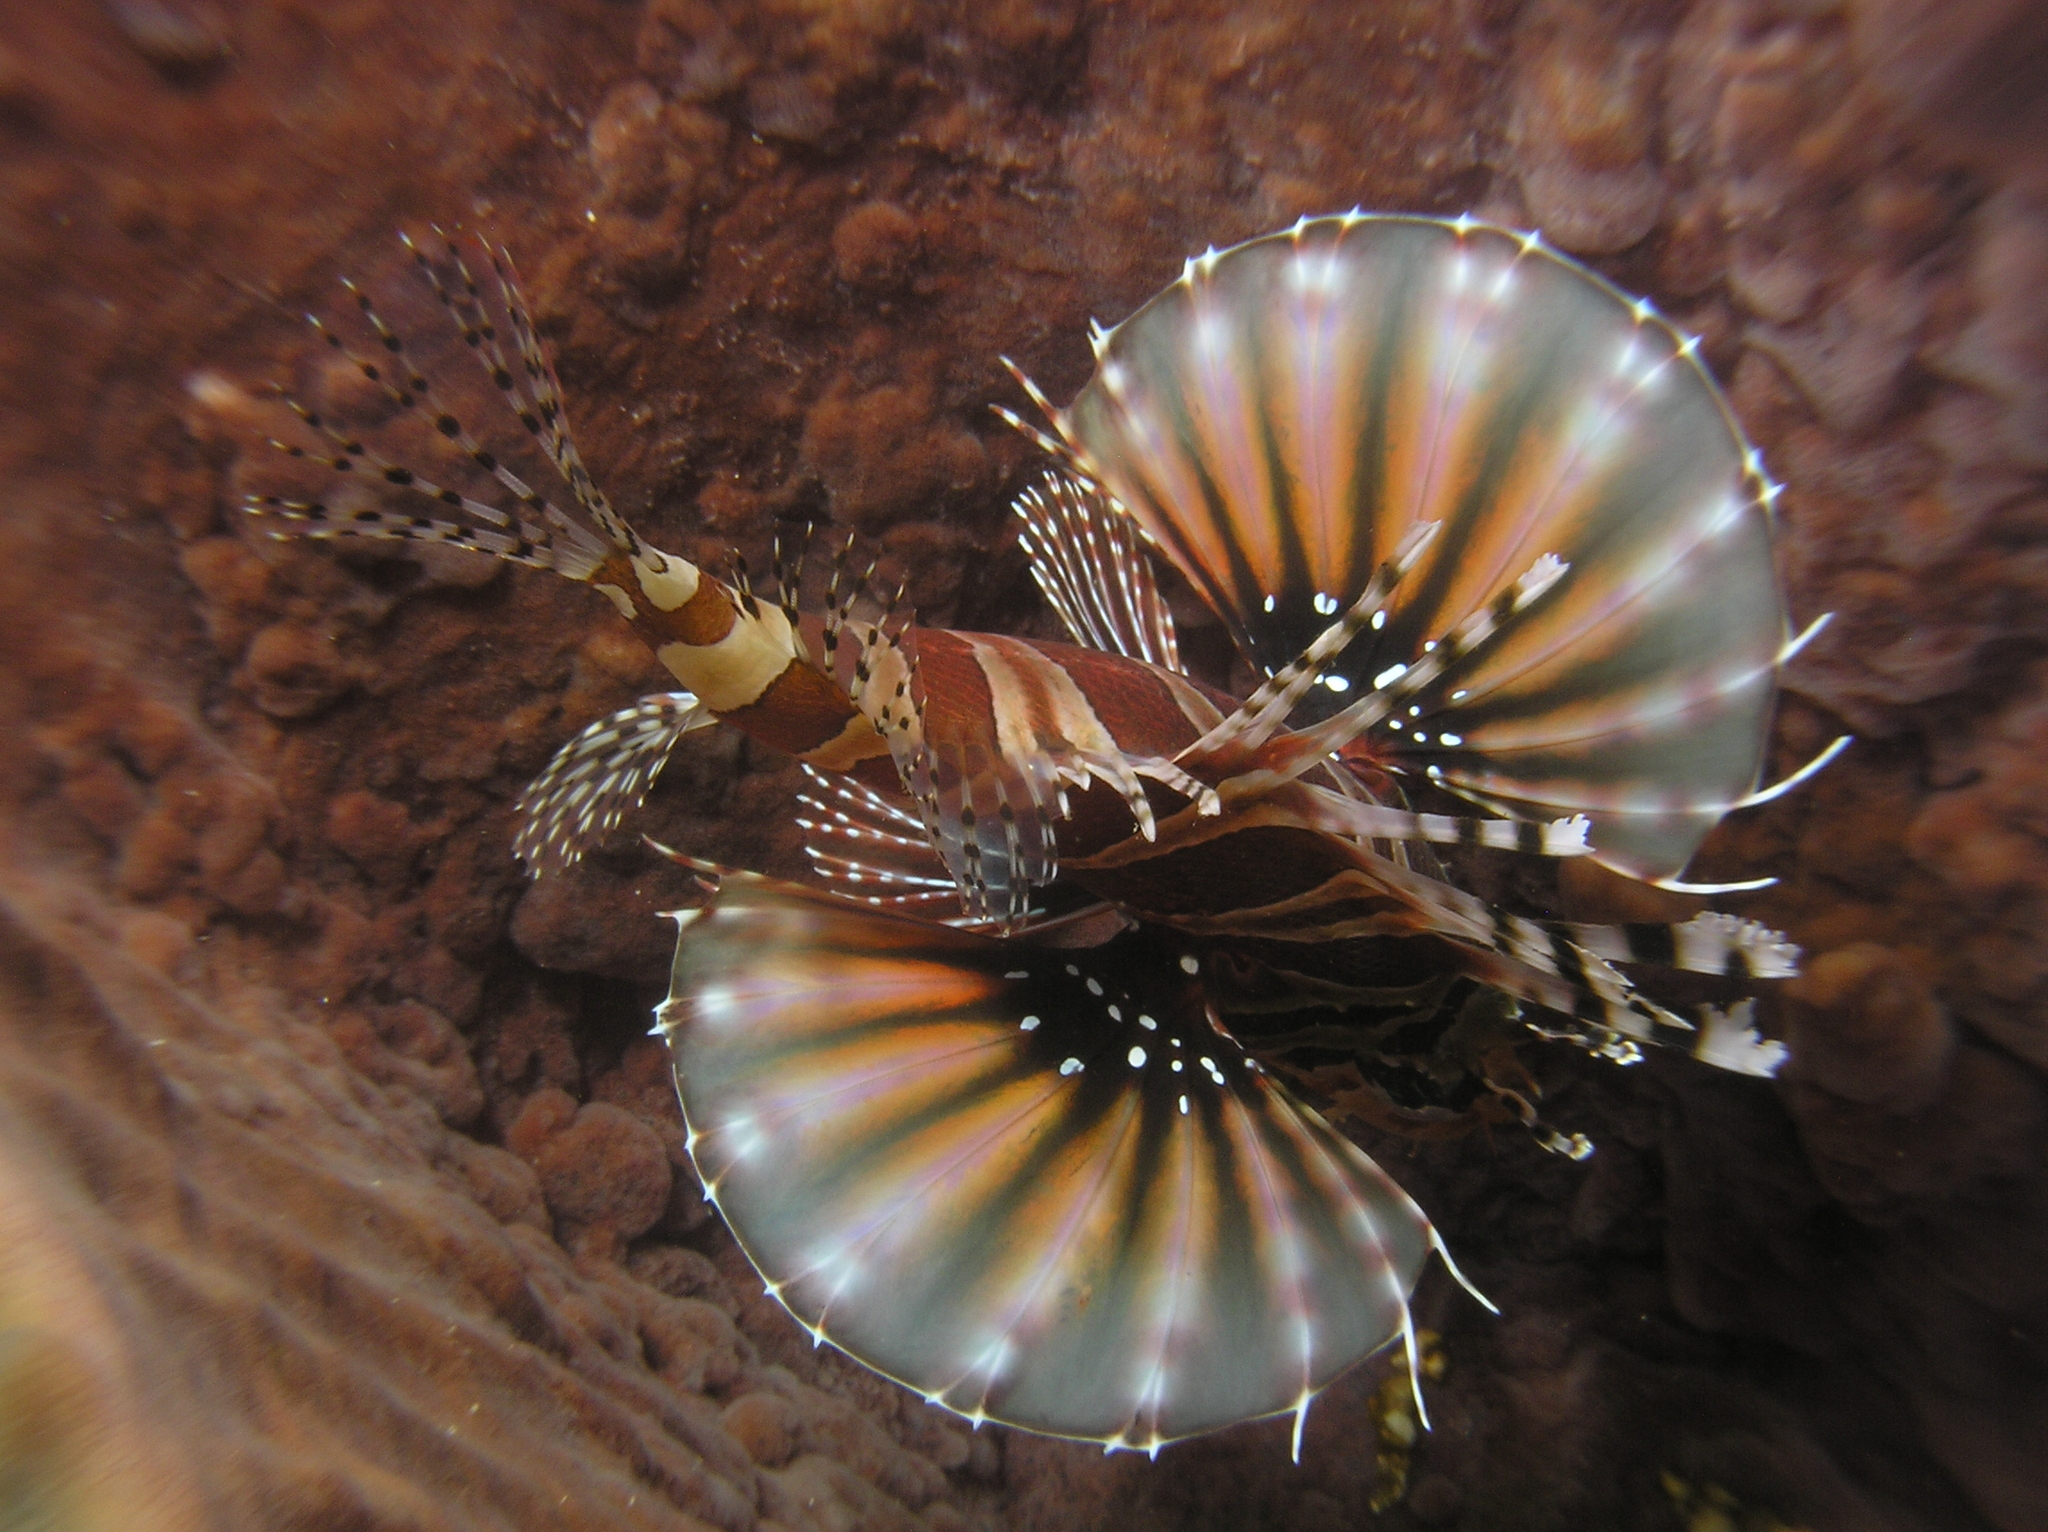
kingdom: Animalia
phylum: Chordata
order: Scorpaeniformes
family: Scorpaenidae
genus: Dendrochirus
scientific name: Dendrochirus zebra
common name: Zebra lionfish
